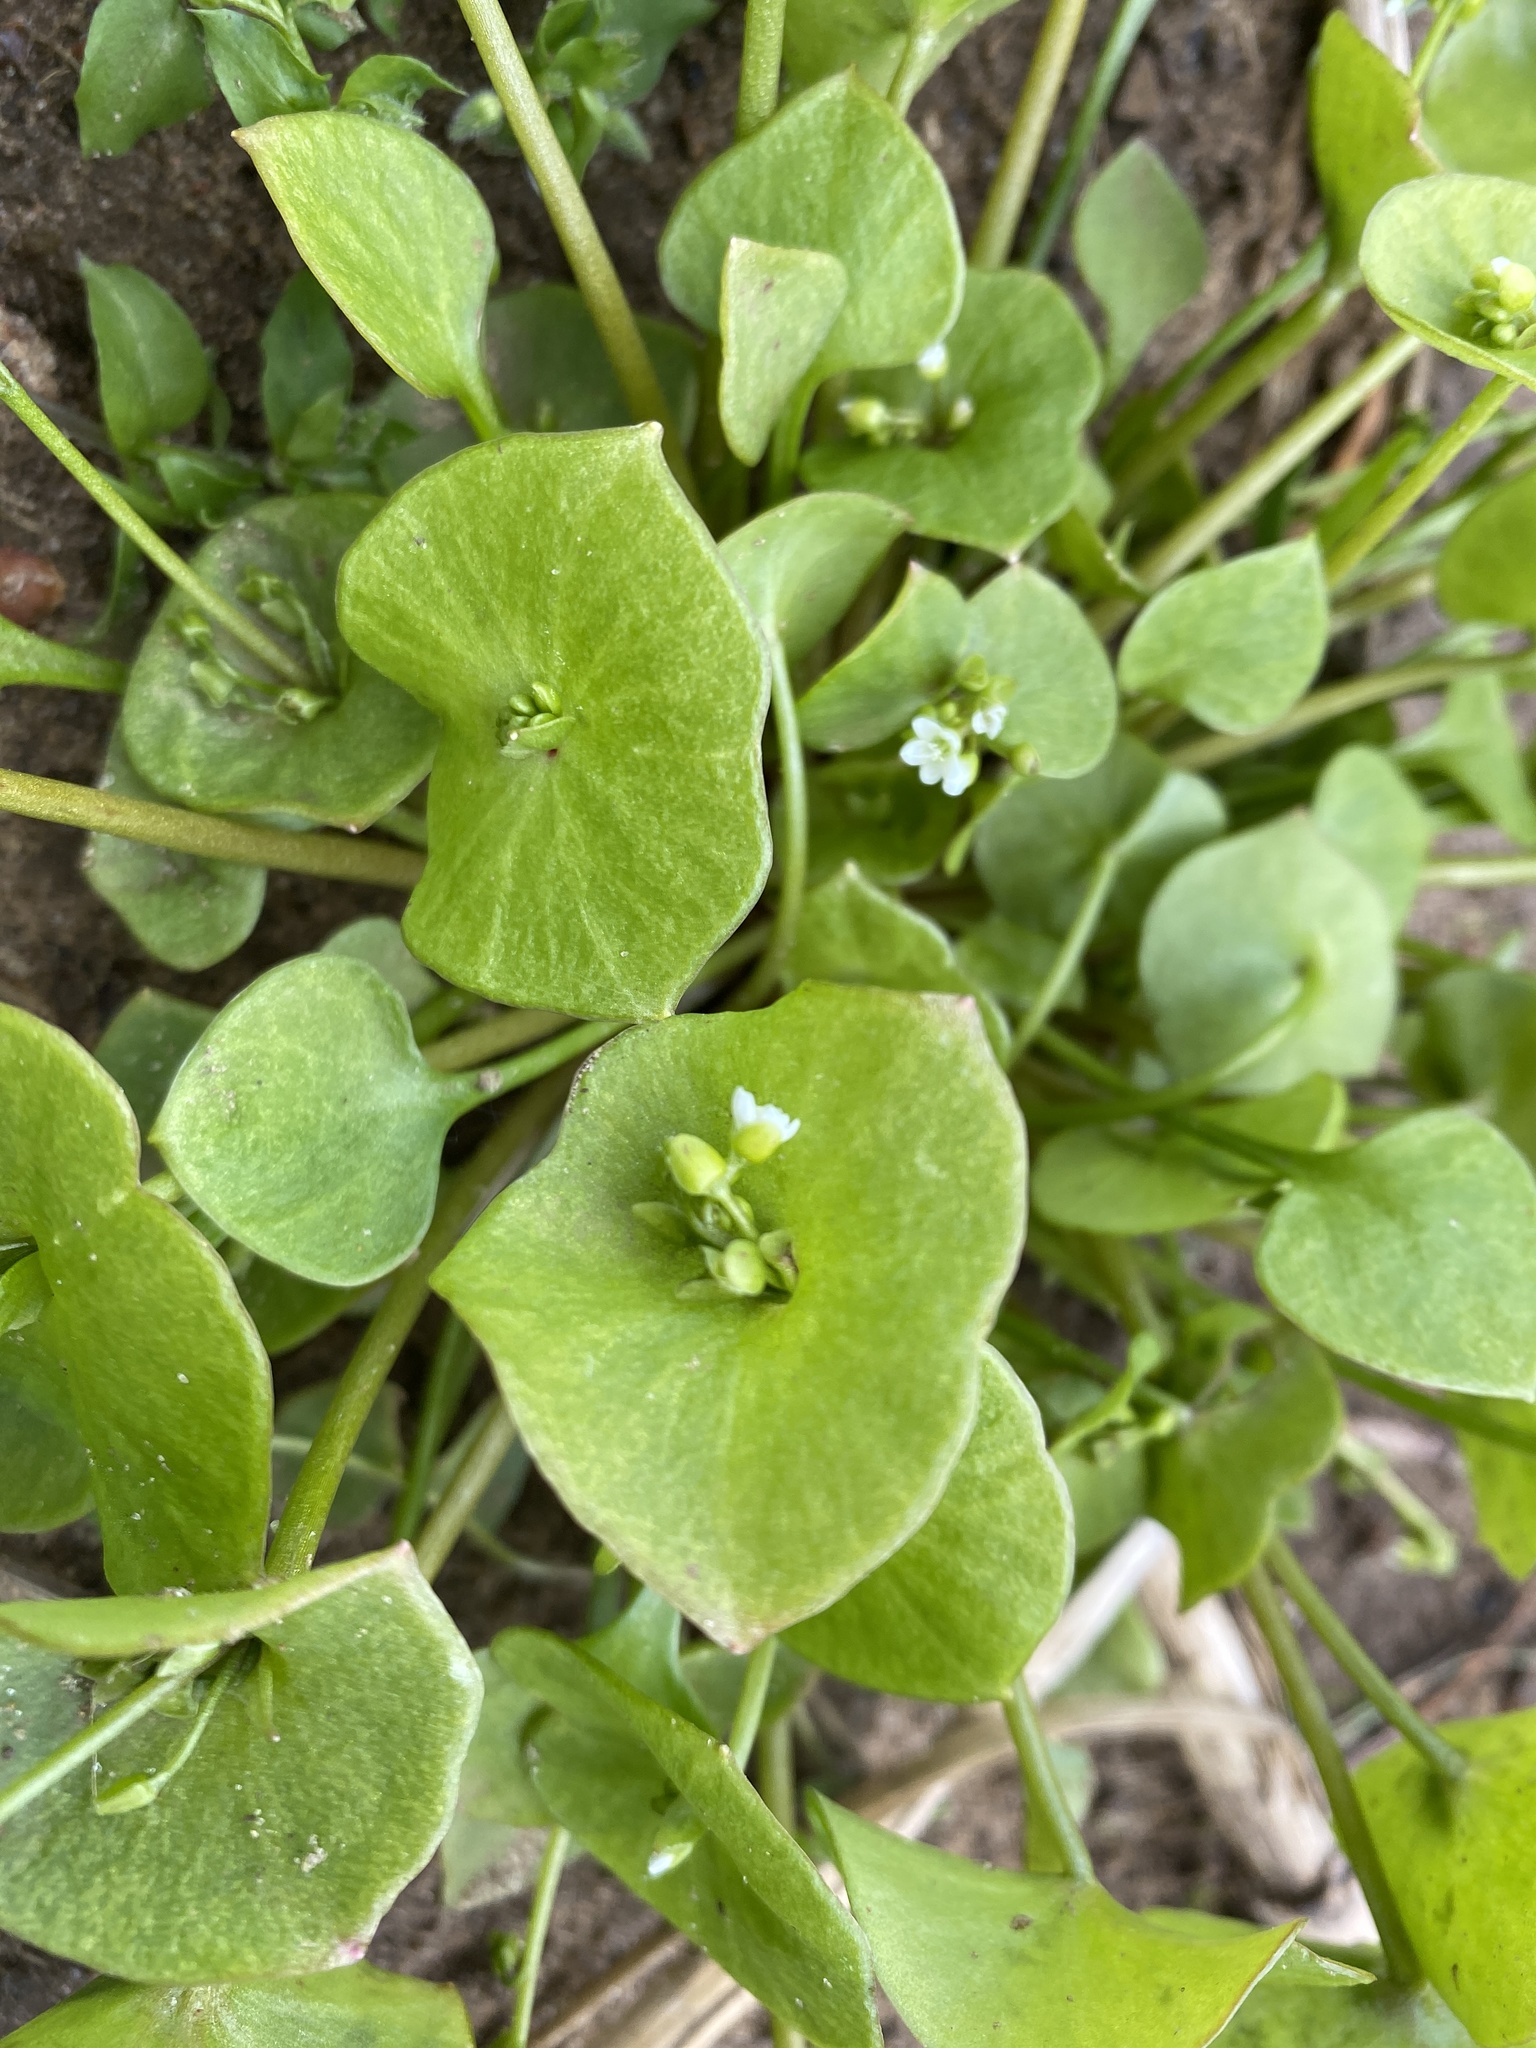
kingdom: Plantae
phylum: Tracheophyta
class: Magnoliopsida
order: Caryophyllales
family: Montiaceae
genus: Claytonia
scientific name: Claytonia perfoliata
